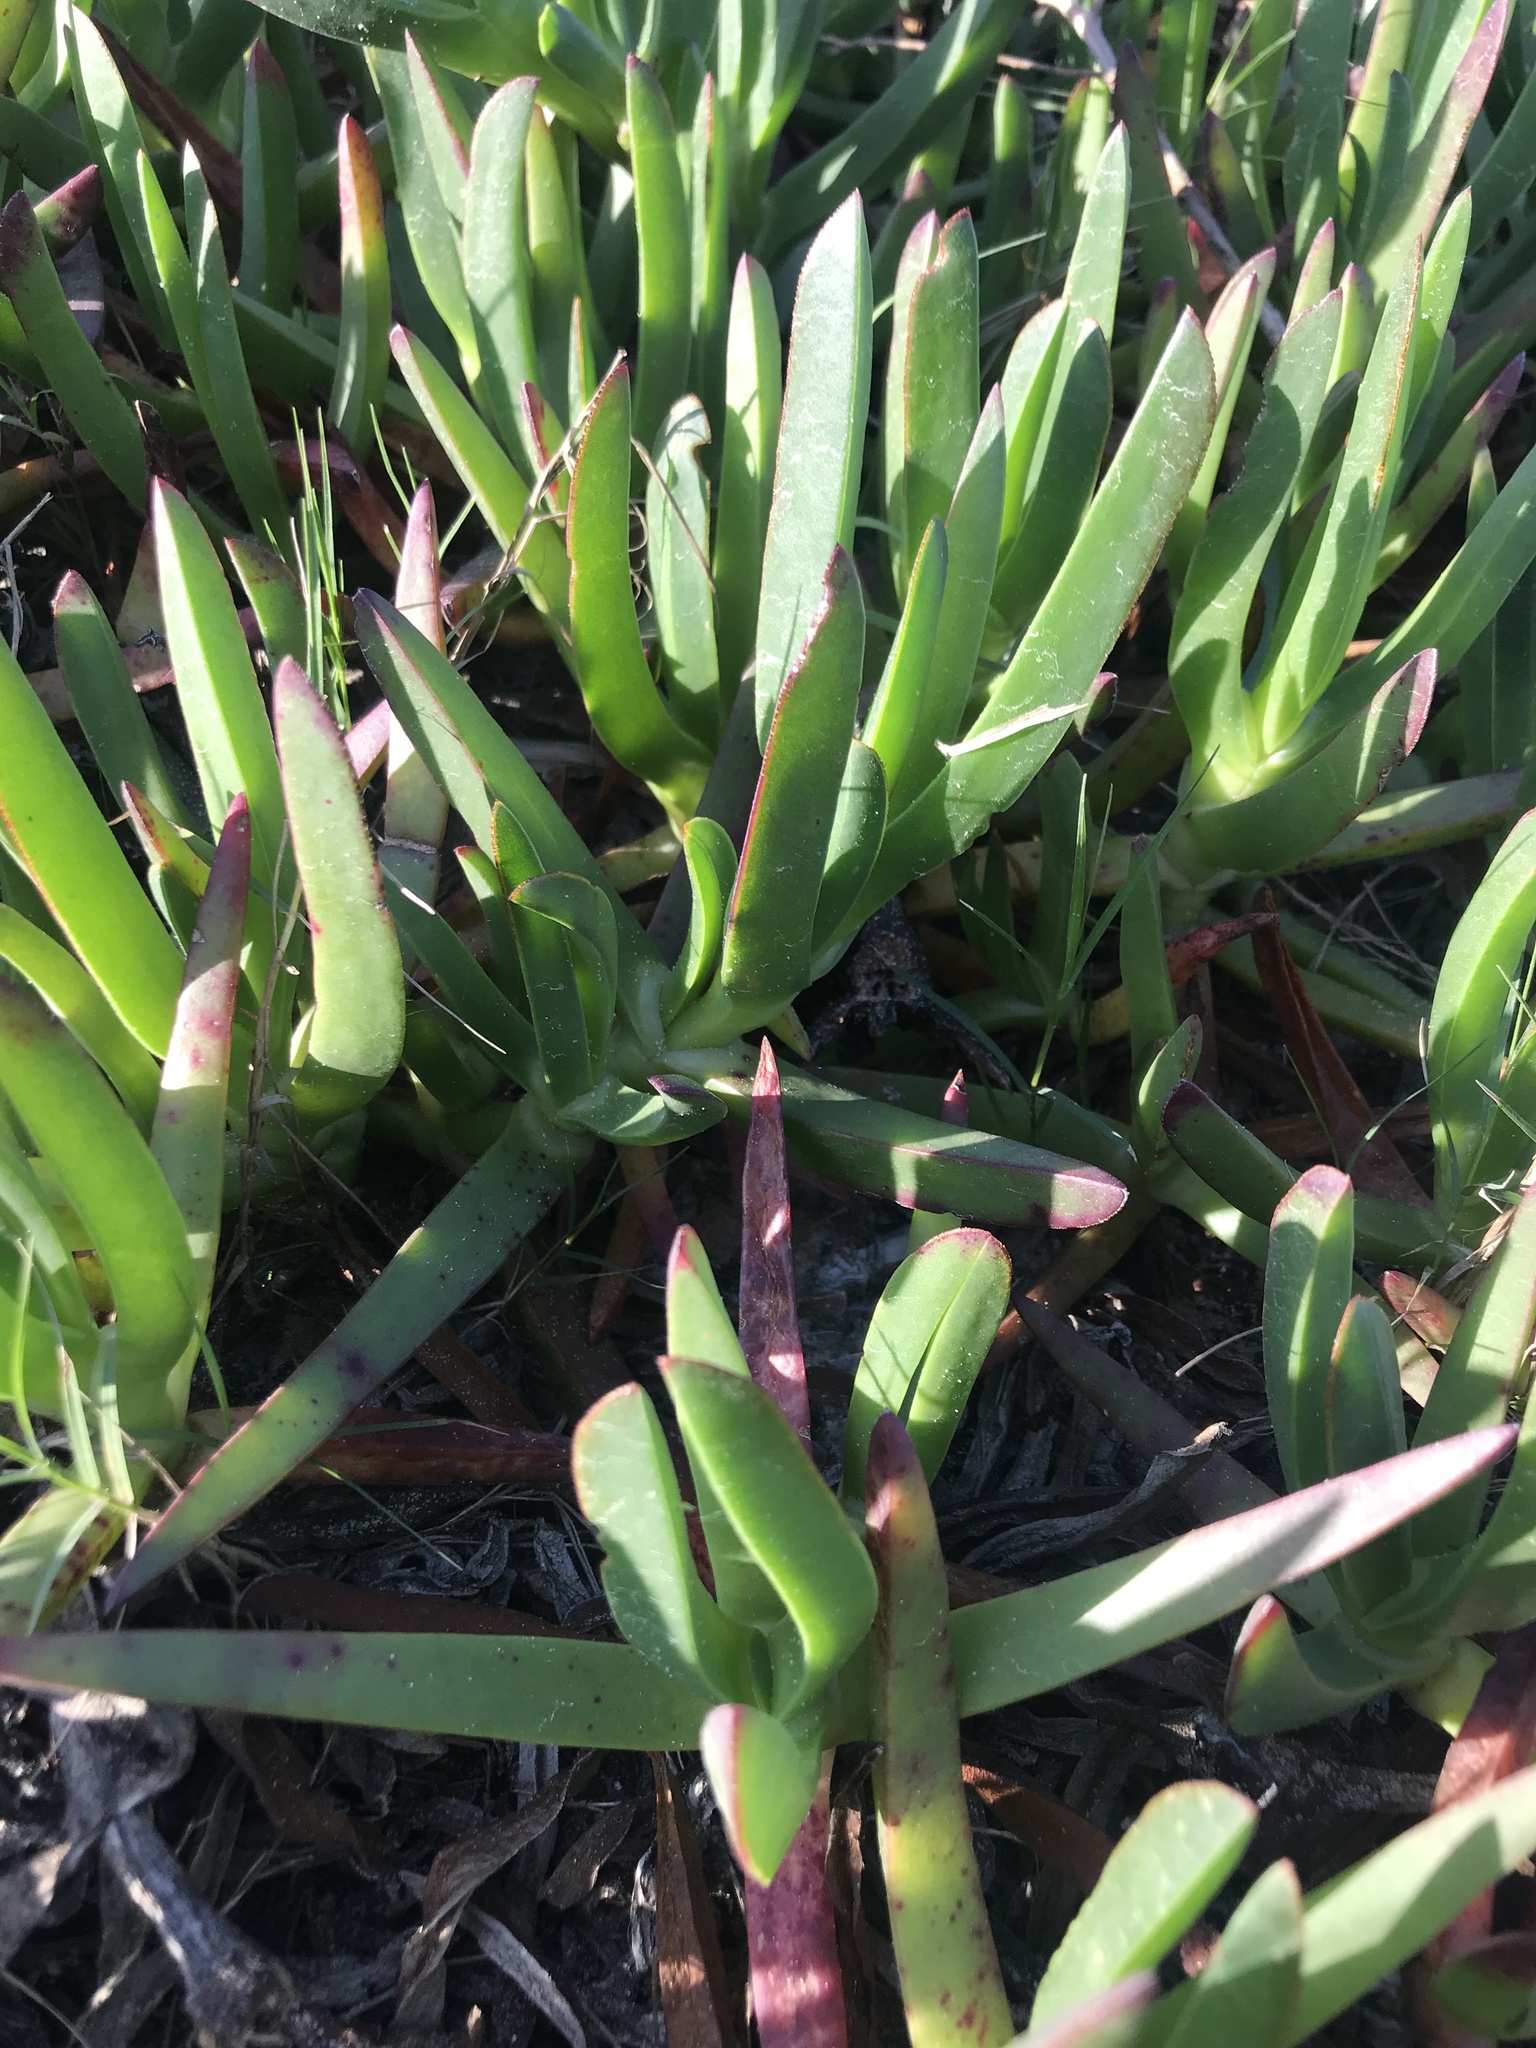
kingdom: Plantae
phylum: Tracheophyta
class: Magnoliopsida
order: Caryophyllales
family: Aizoaceae
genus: Carpobrotus
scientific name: Carpobrotus edulis
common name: Hottentot-fig
